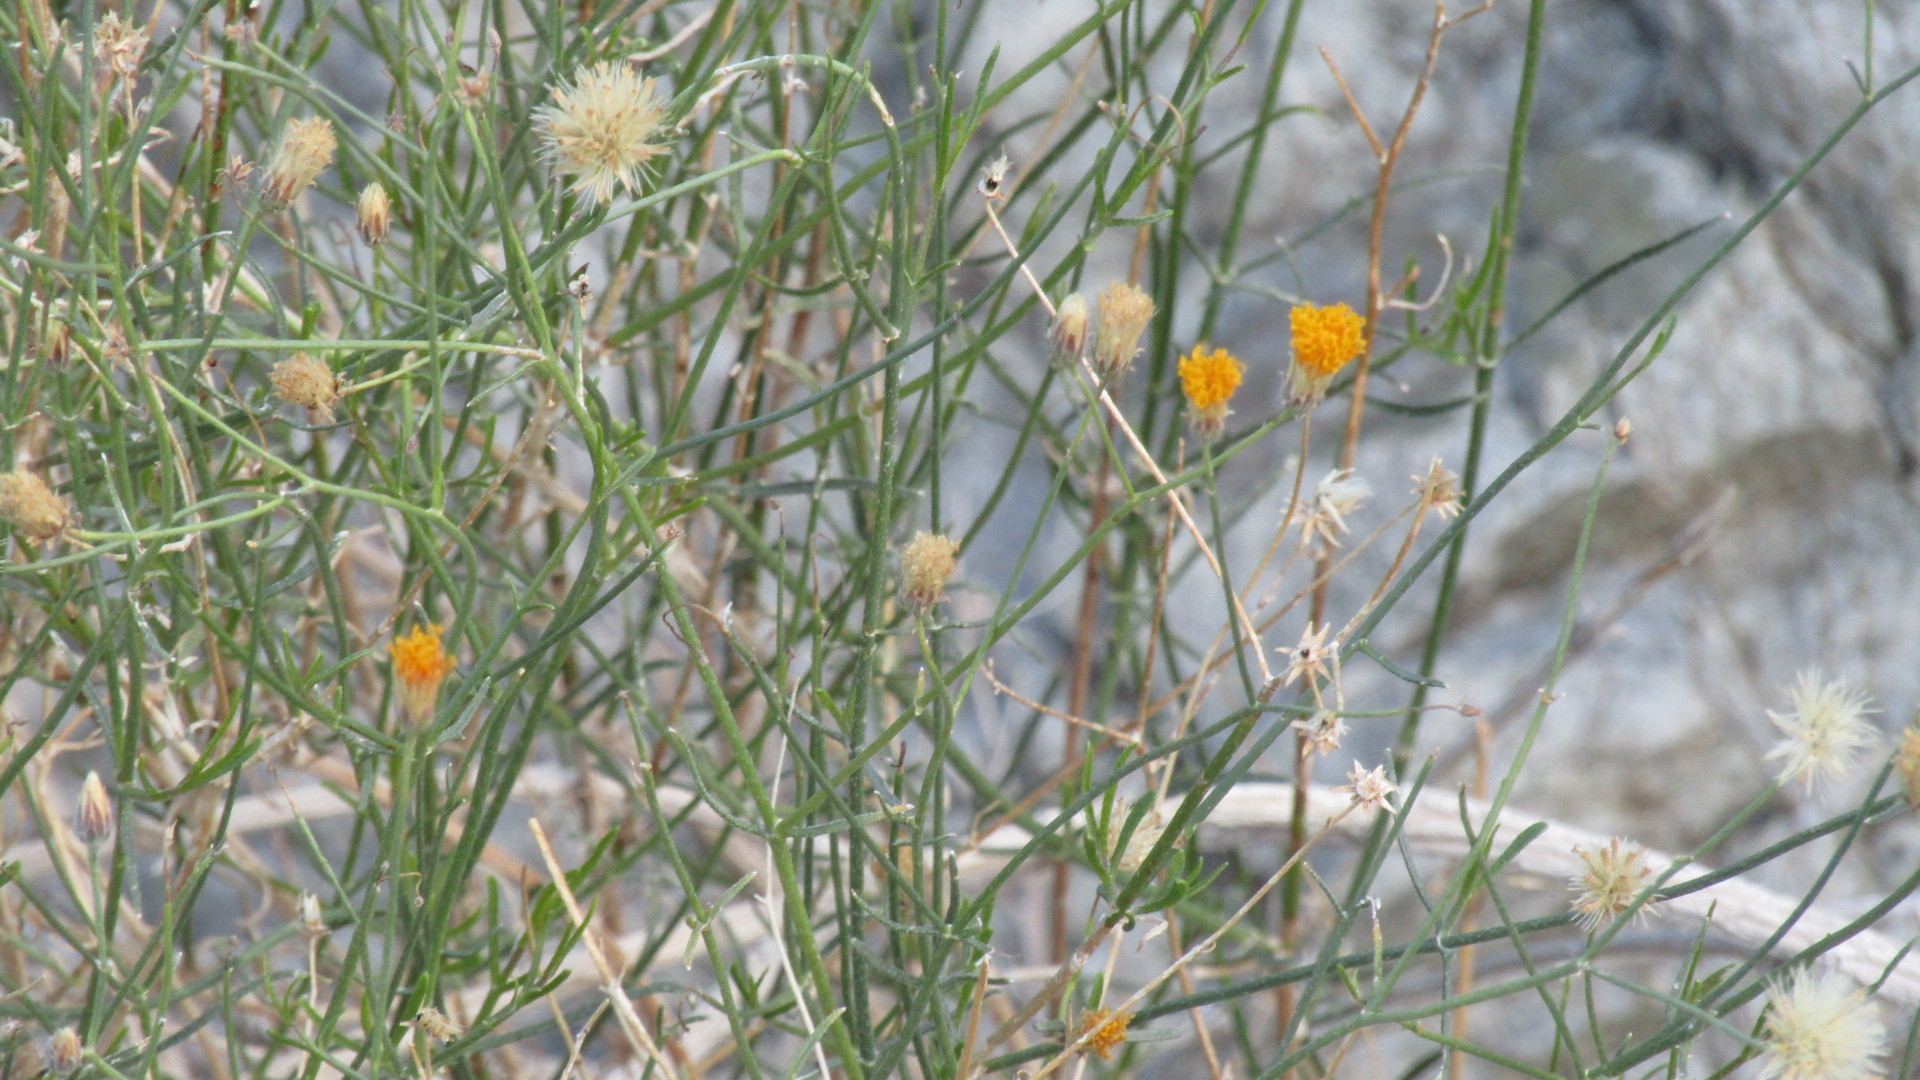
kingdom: Plantae
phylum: Tracheophyta
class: Magnoliopsida
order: Asterales
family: Asteraceae
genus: Bebbia
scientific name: Bebbia juncea
